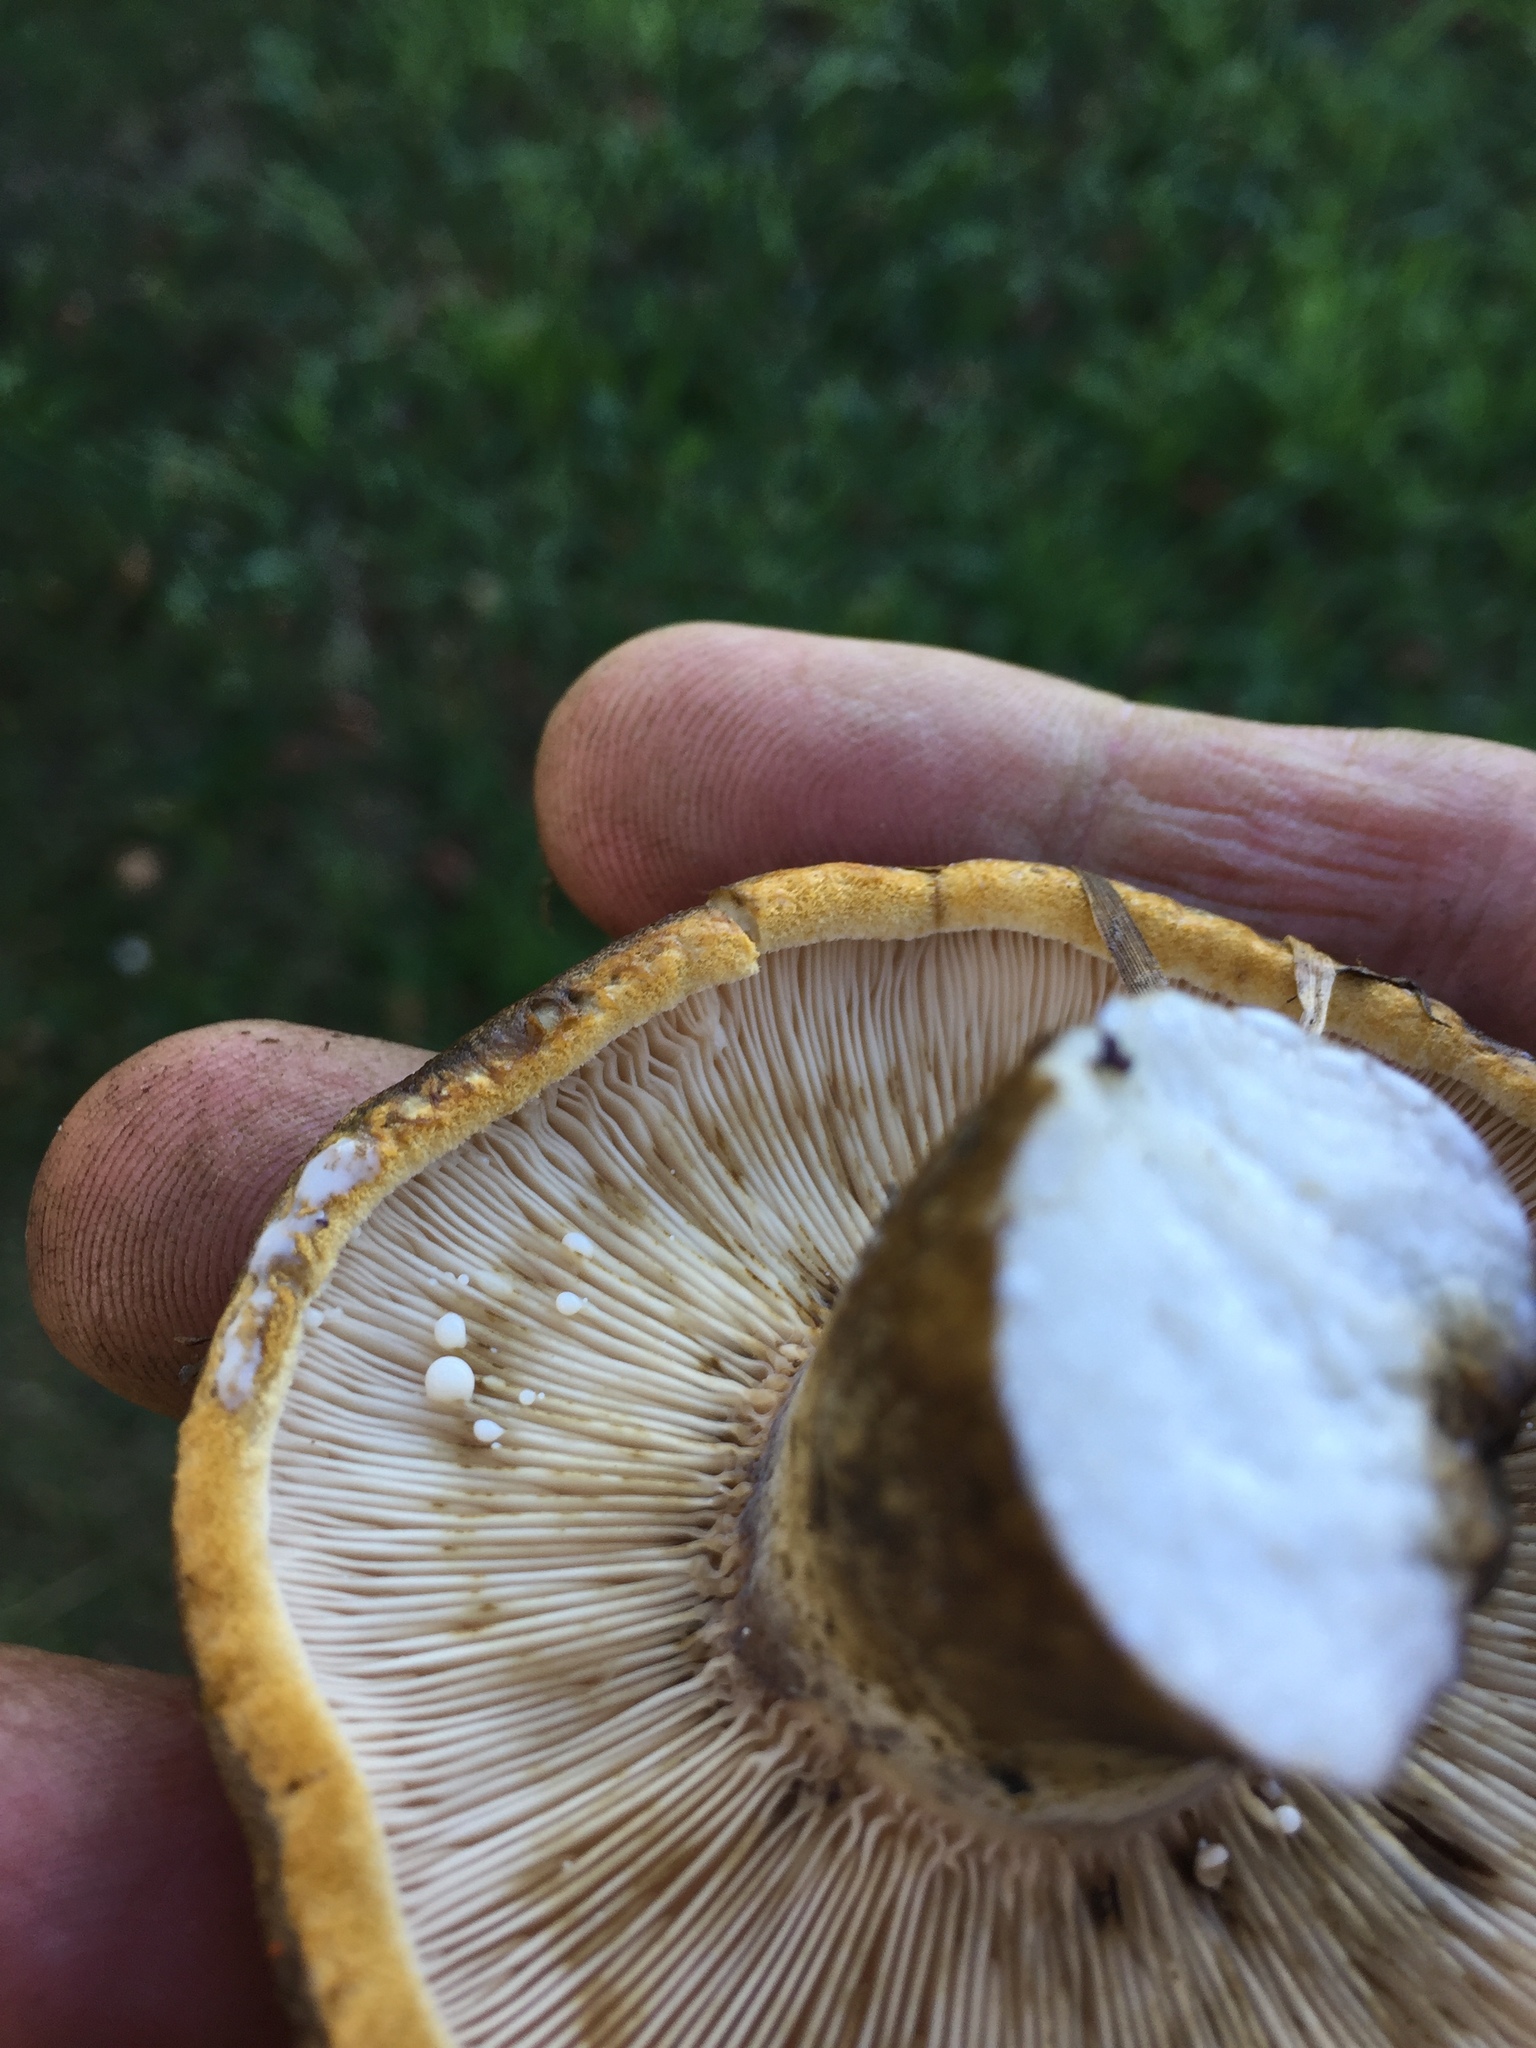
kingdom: Fungi
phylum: Basidiomycota
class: Agaricomycetes
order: Russulales
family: Russulaceae
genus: Lactarius
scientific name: Lactarius turpis
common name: Ugly milk-cap
